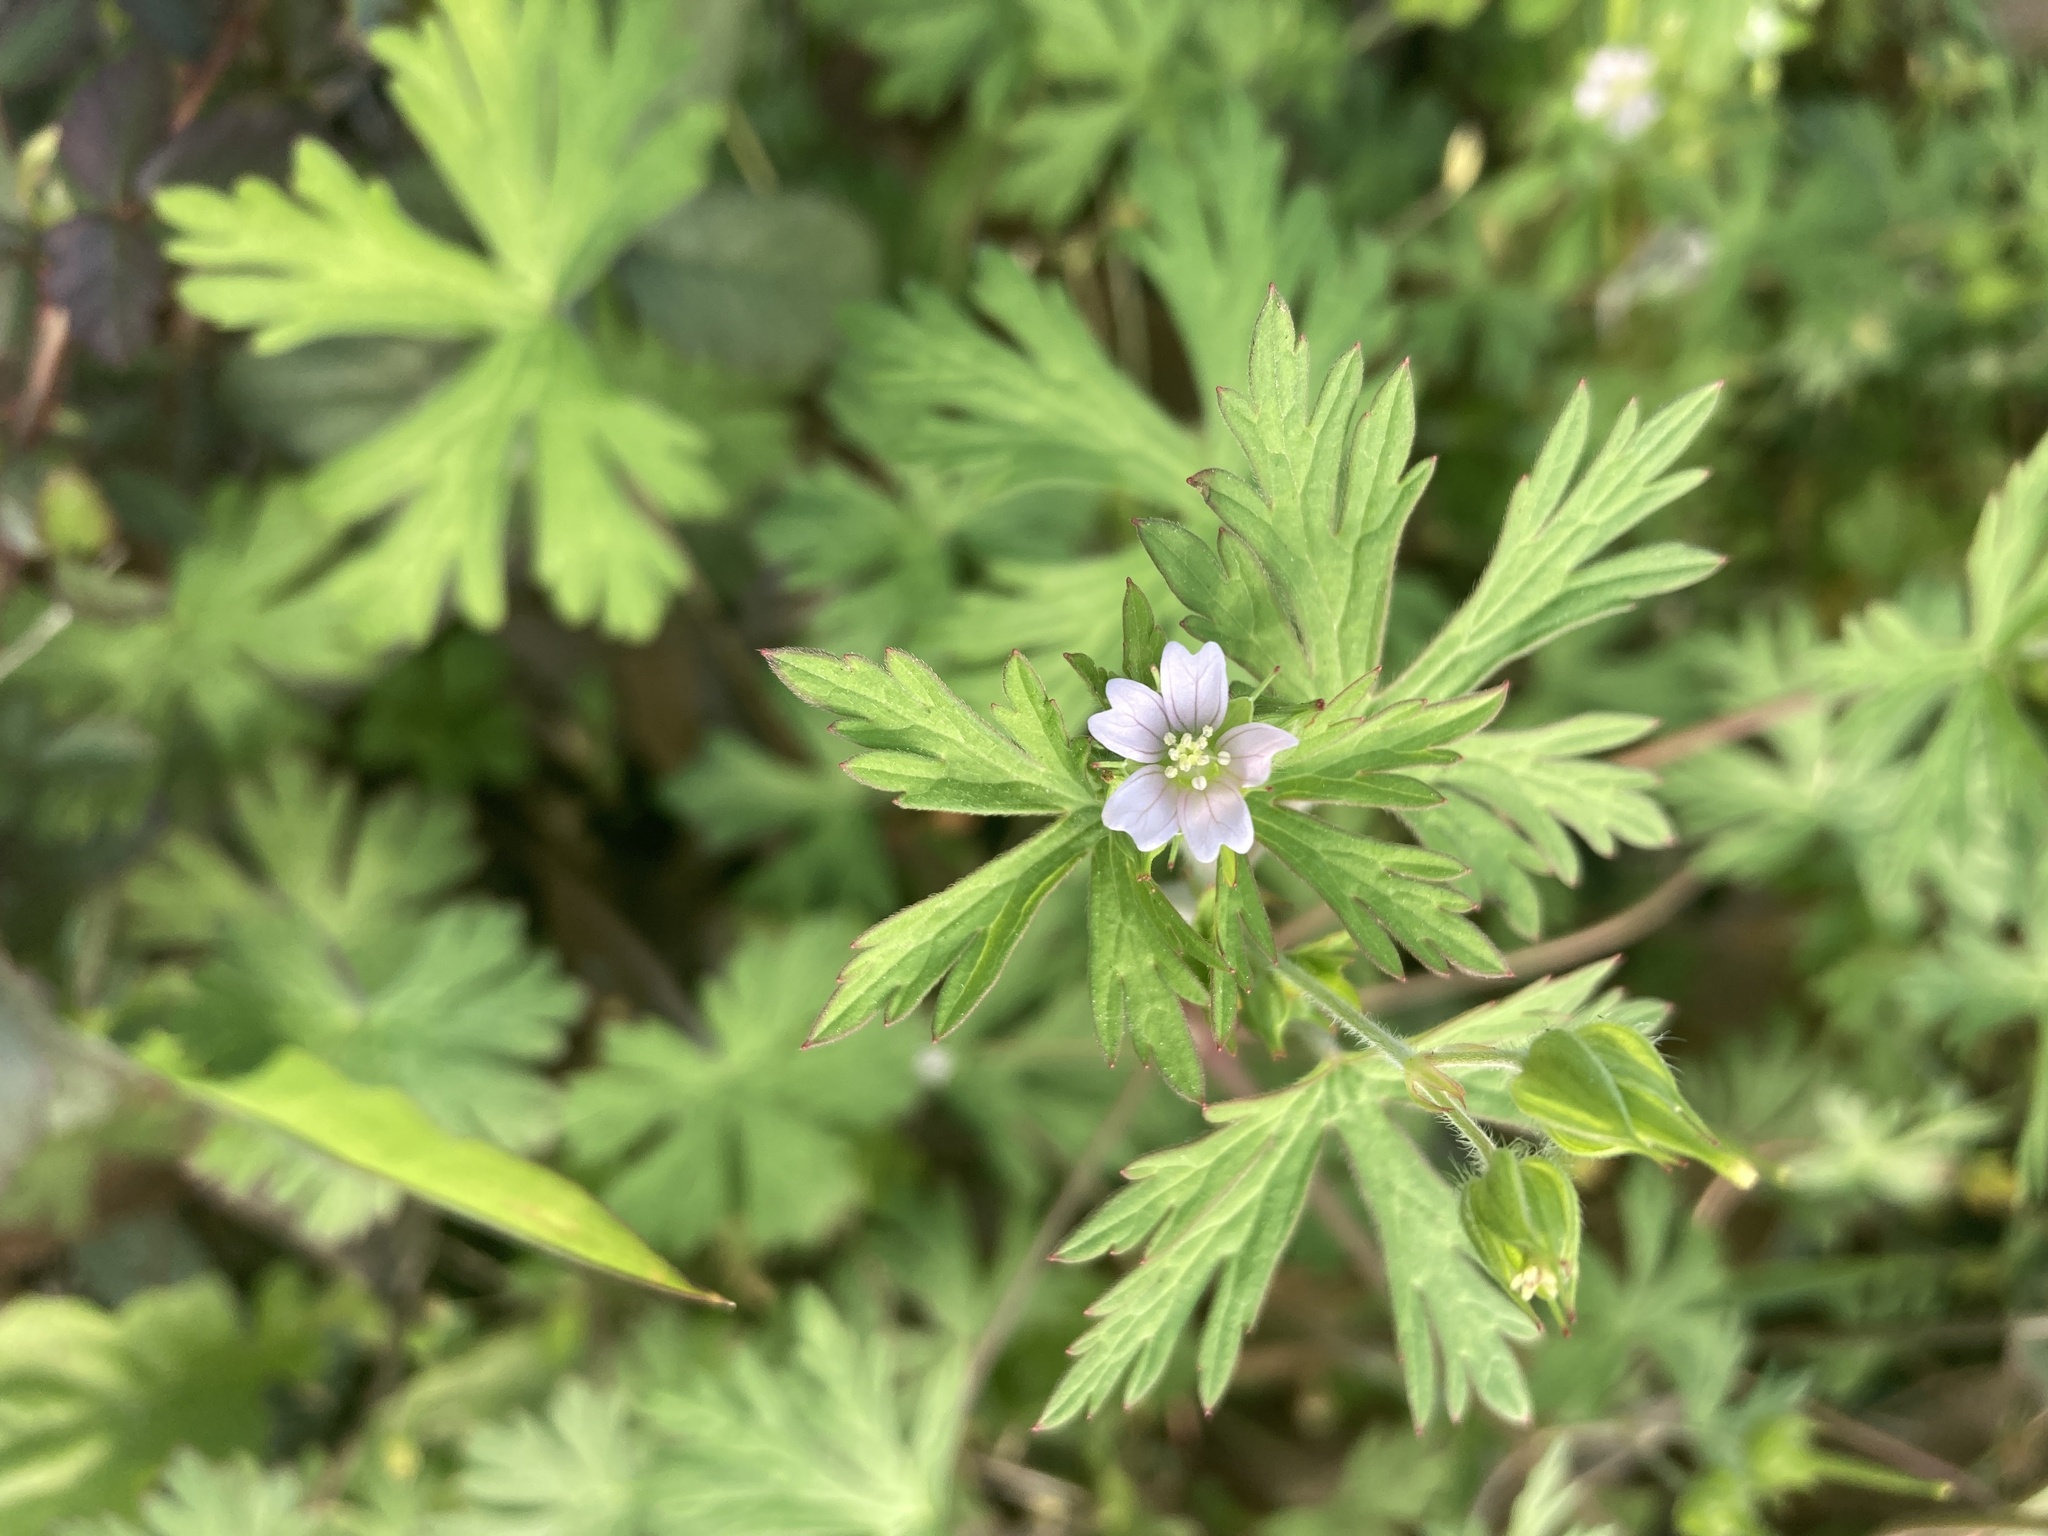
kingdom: Plantae
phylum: Tracheophyta
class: Magnoliopsida
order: Geraniales
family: Geraniaceae
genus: Geranium
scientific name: Geranium carolinianum
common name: Carolina crane's-bill
